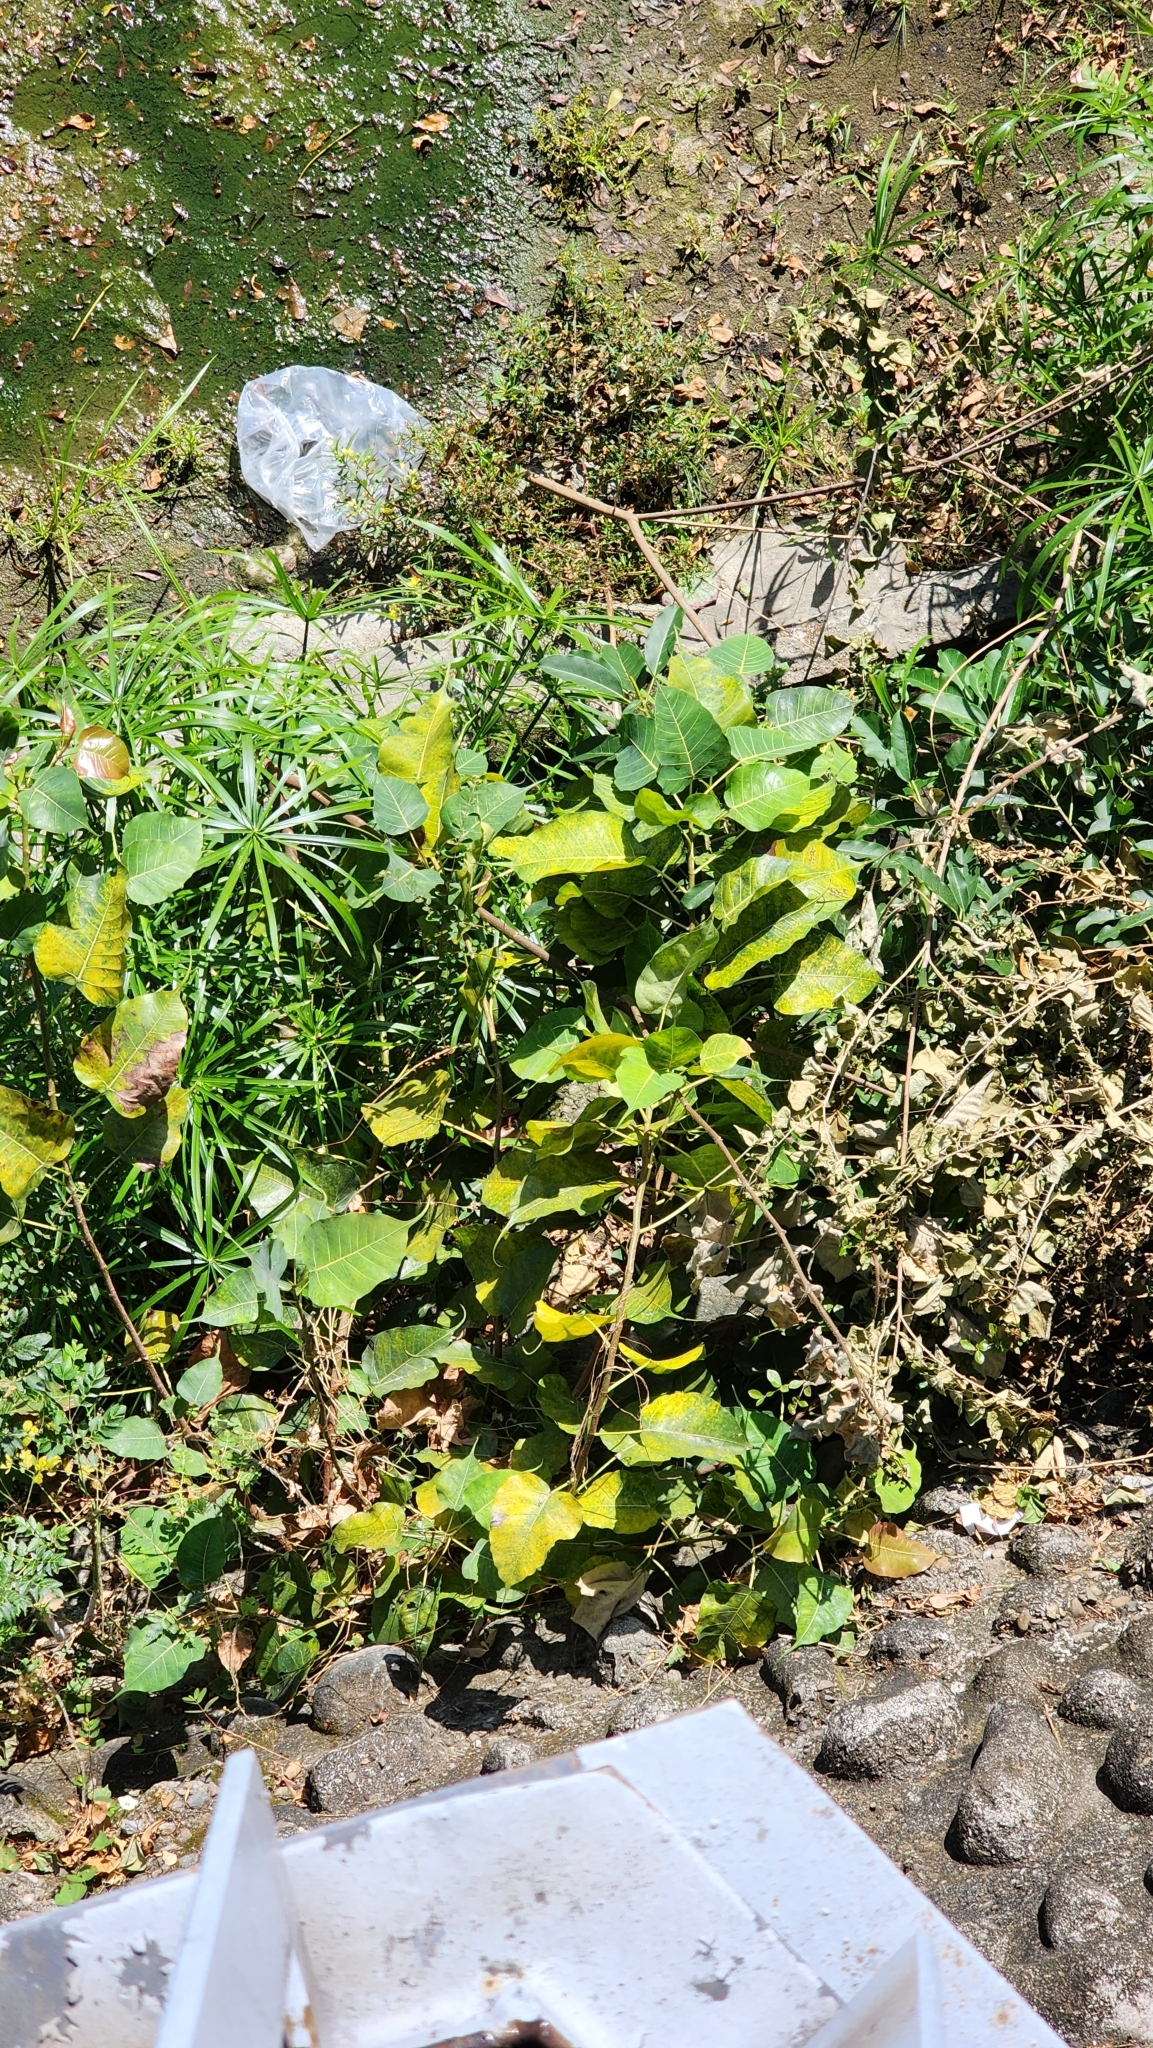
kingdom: Plantae
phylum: Tracheophyta
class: Magnoliopsida
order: Rosales
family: Moraceae
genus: Ficus
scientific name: Ficus religiosa
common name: Bodhi tree
